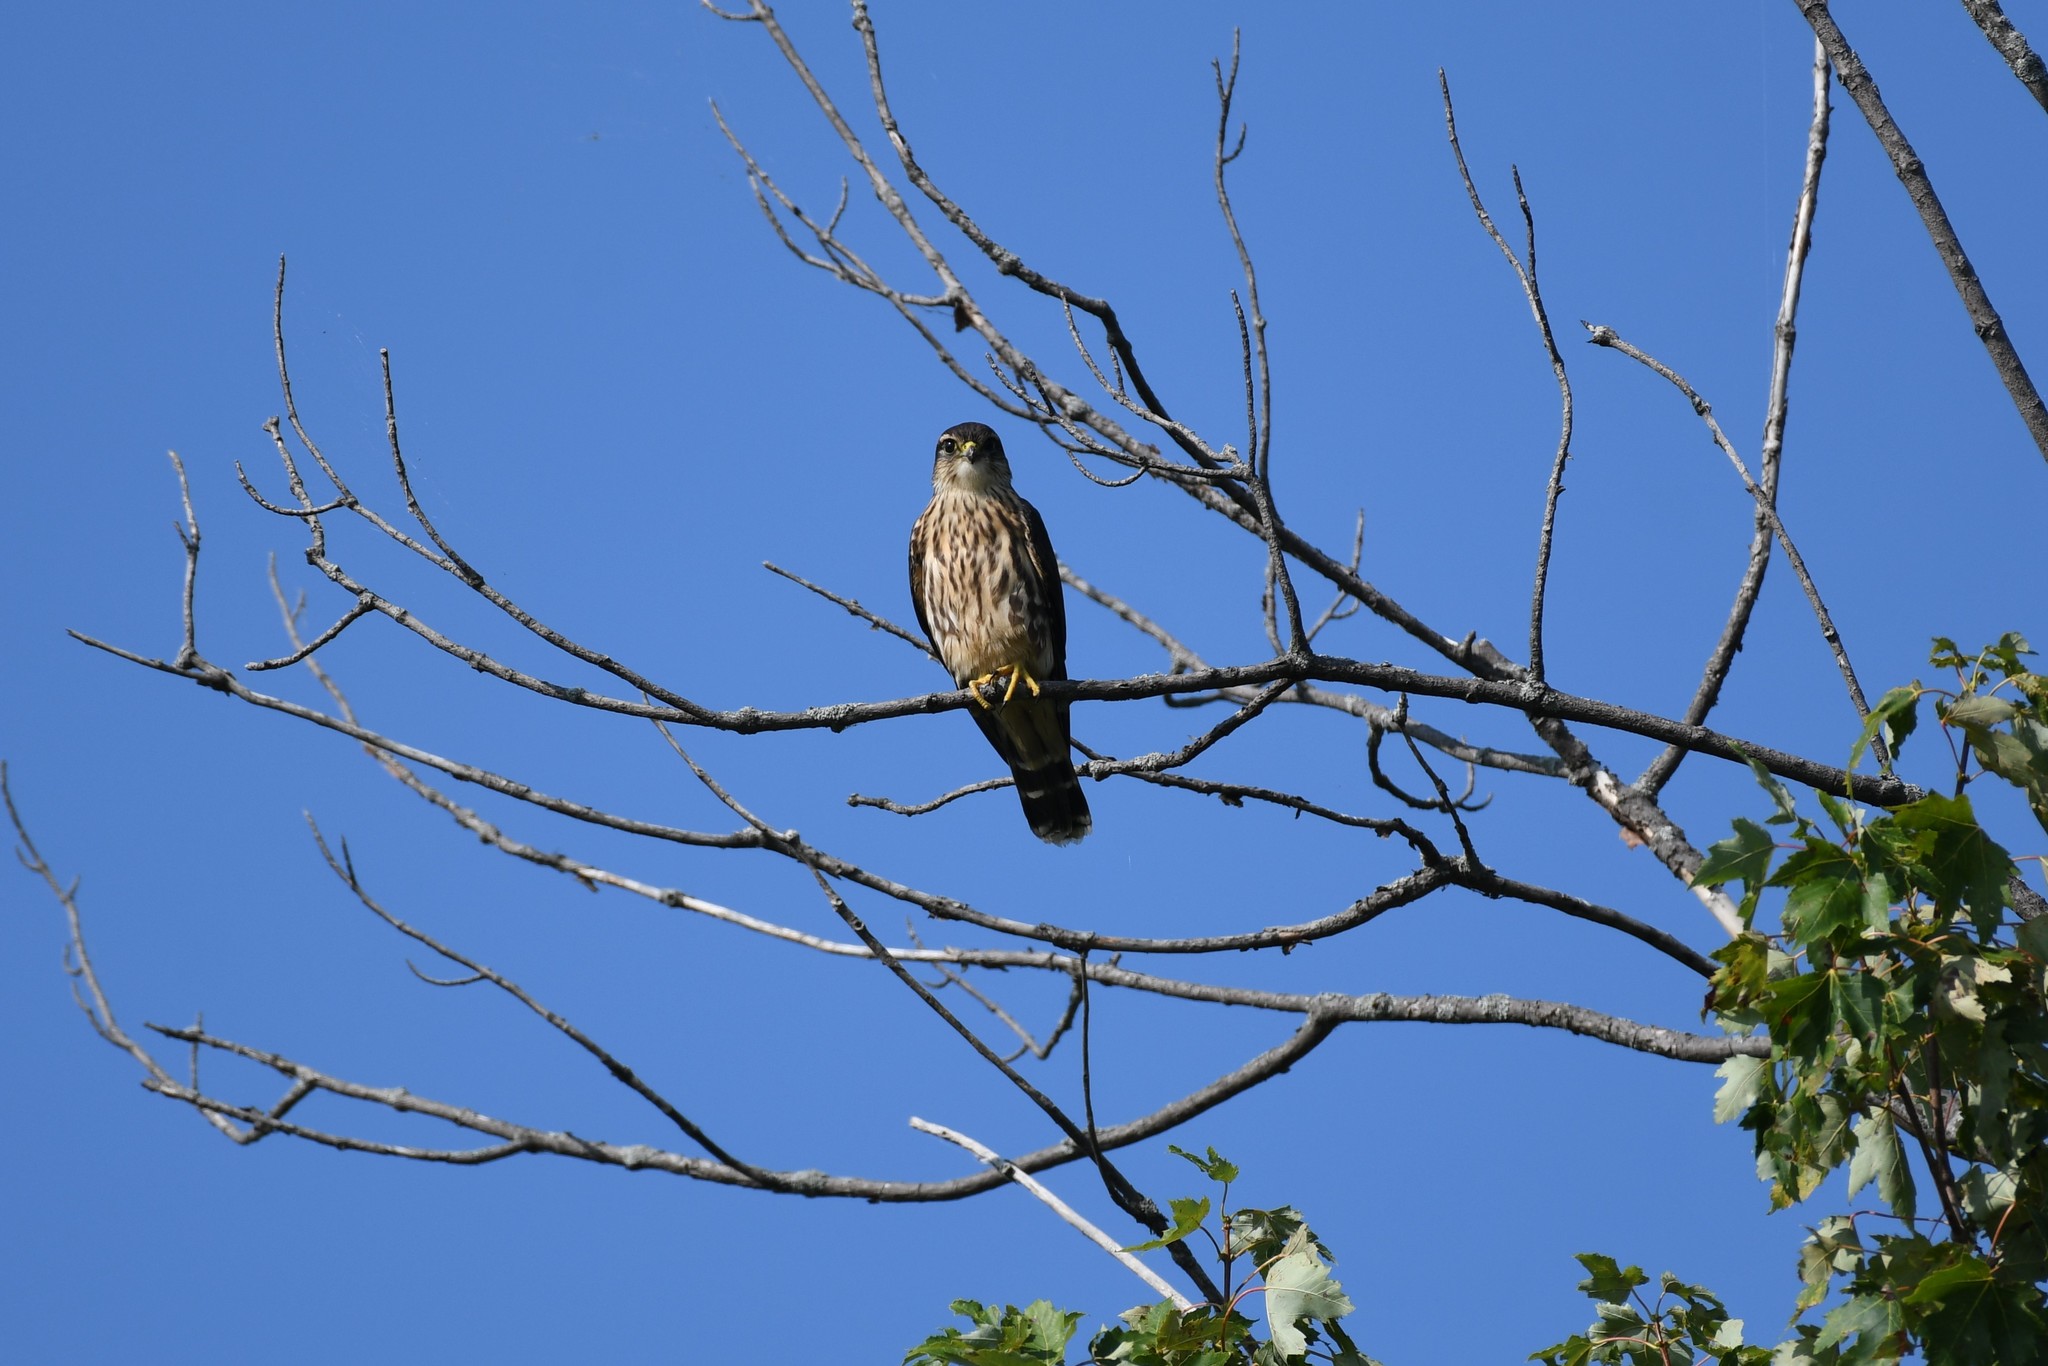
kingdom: Animalia
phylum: Chordata
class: Aves
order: Falconiformes
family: Falconidae
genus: Falco
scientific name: Falco columbarius
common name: Merlin
